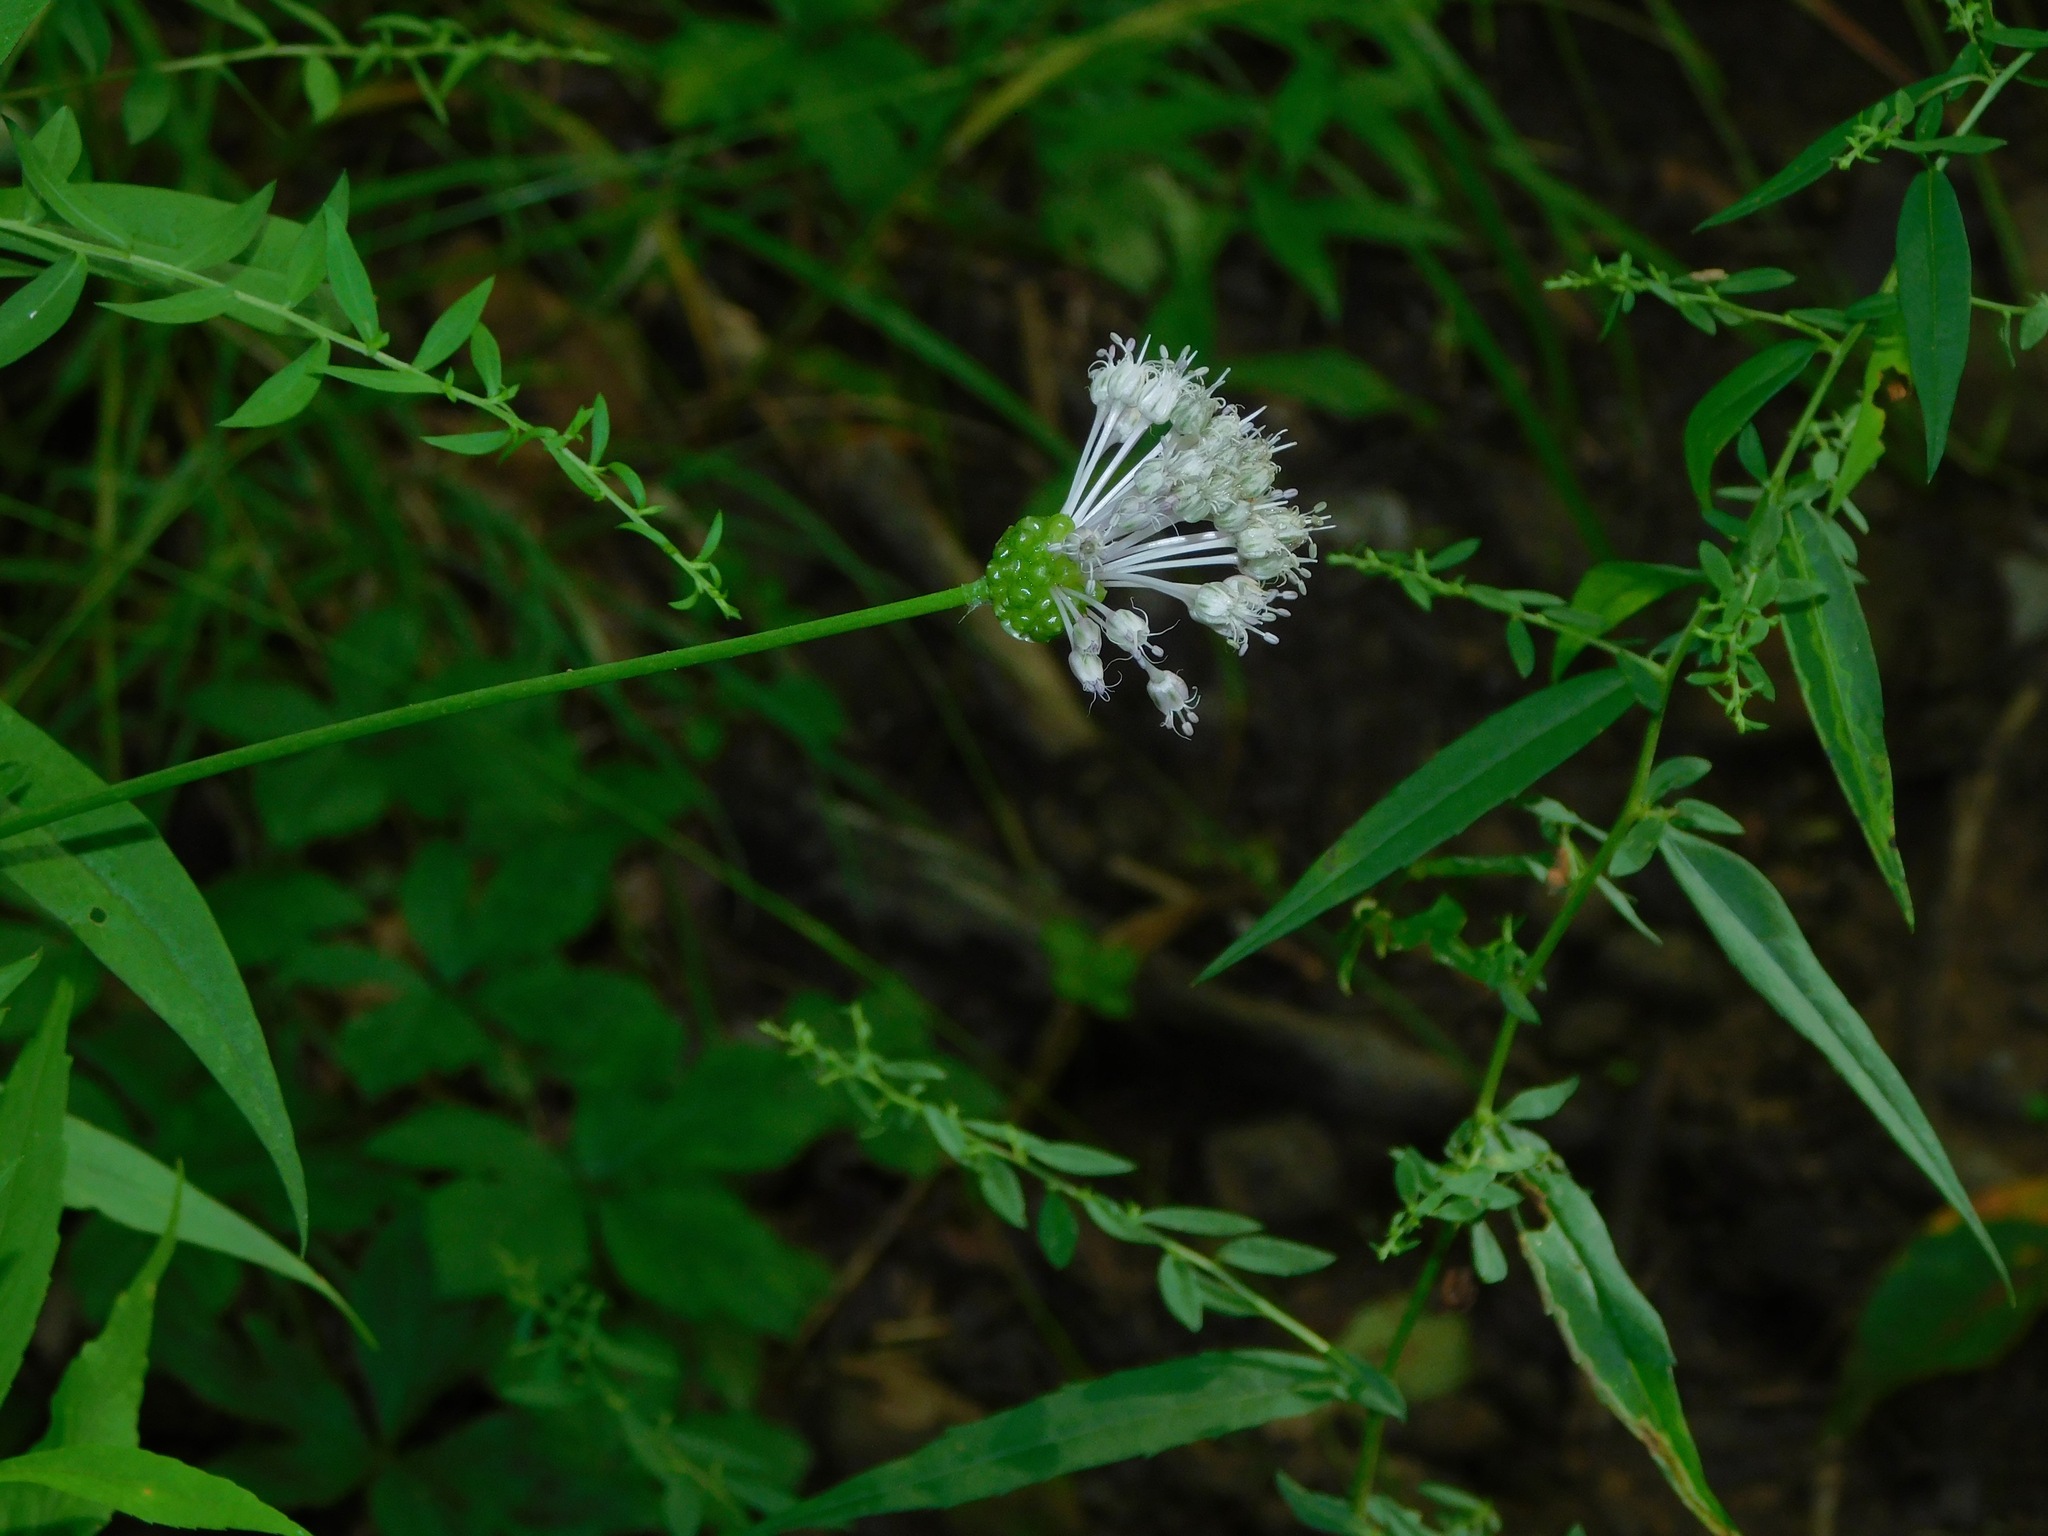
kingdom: Plantae
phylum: Tracheophyta
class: Liliopsida
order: Asparagales
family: Amaryllidaceae
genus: Allium
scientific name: Allium vineale
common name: Crow garlic
